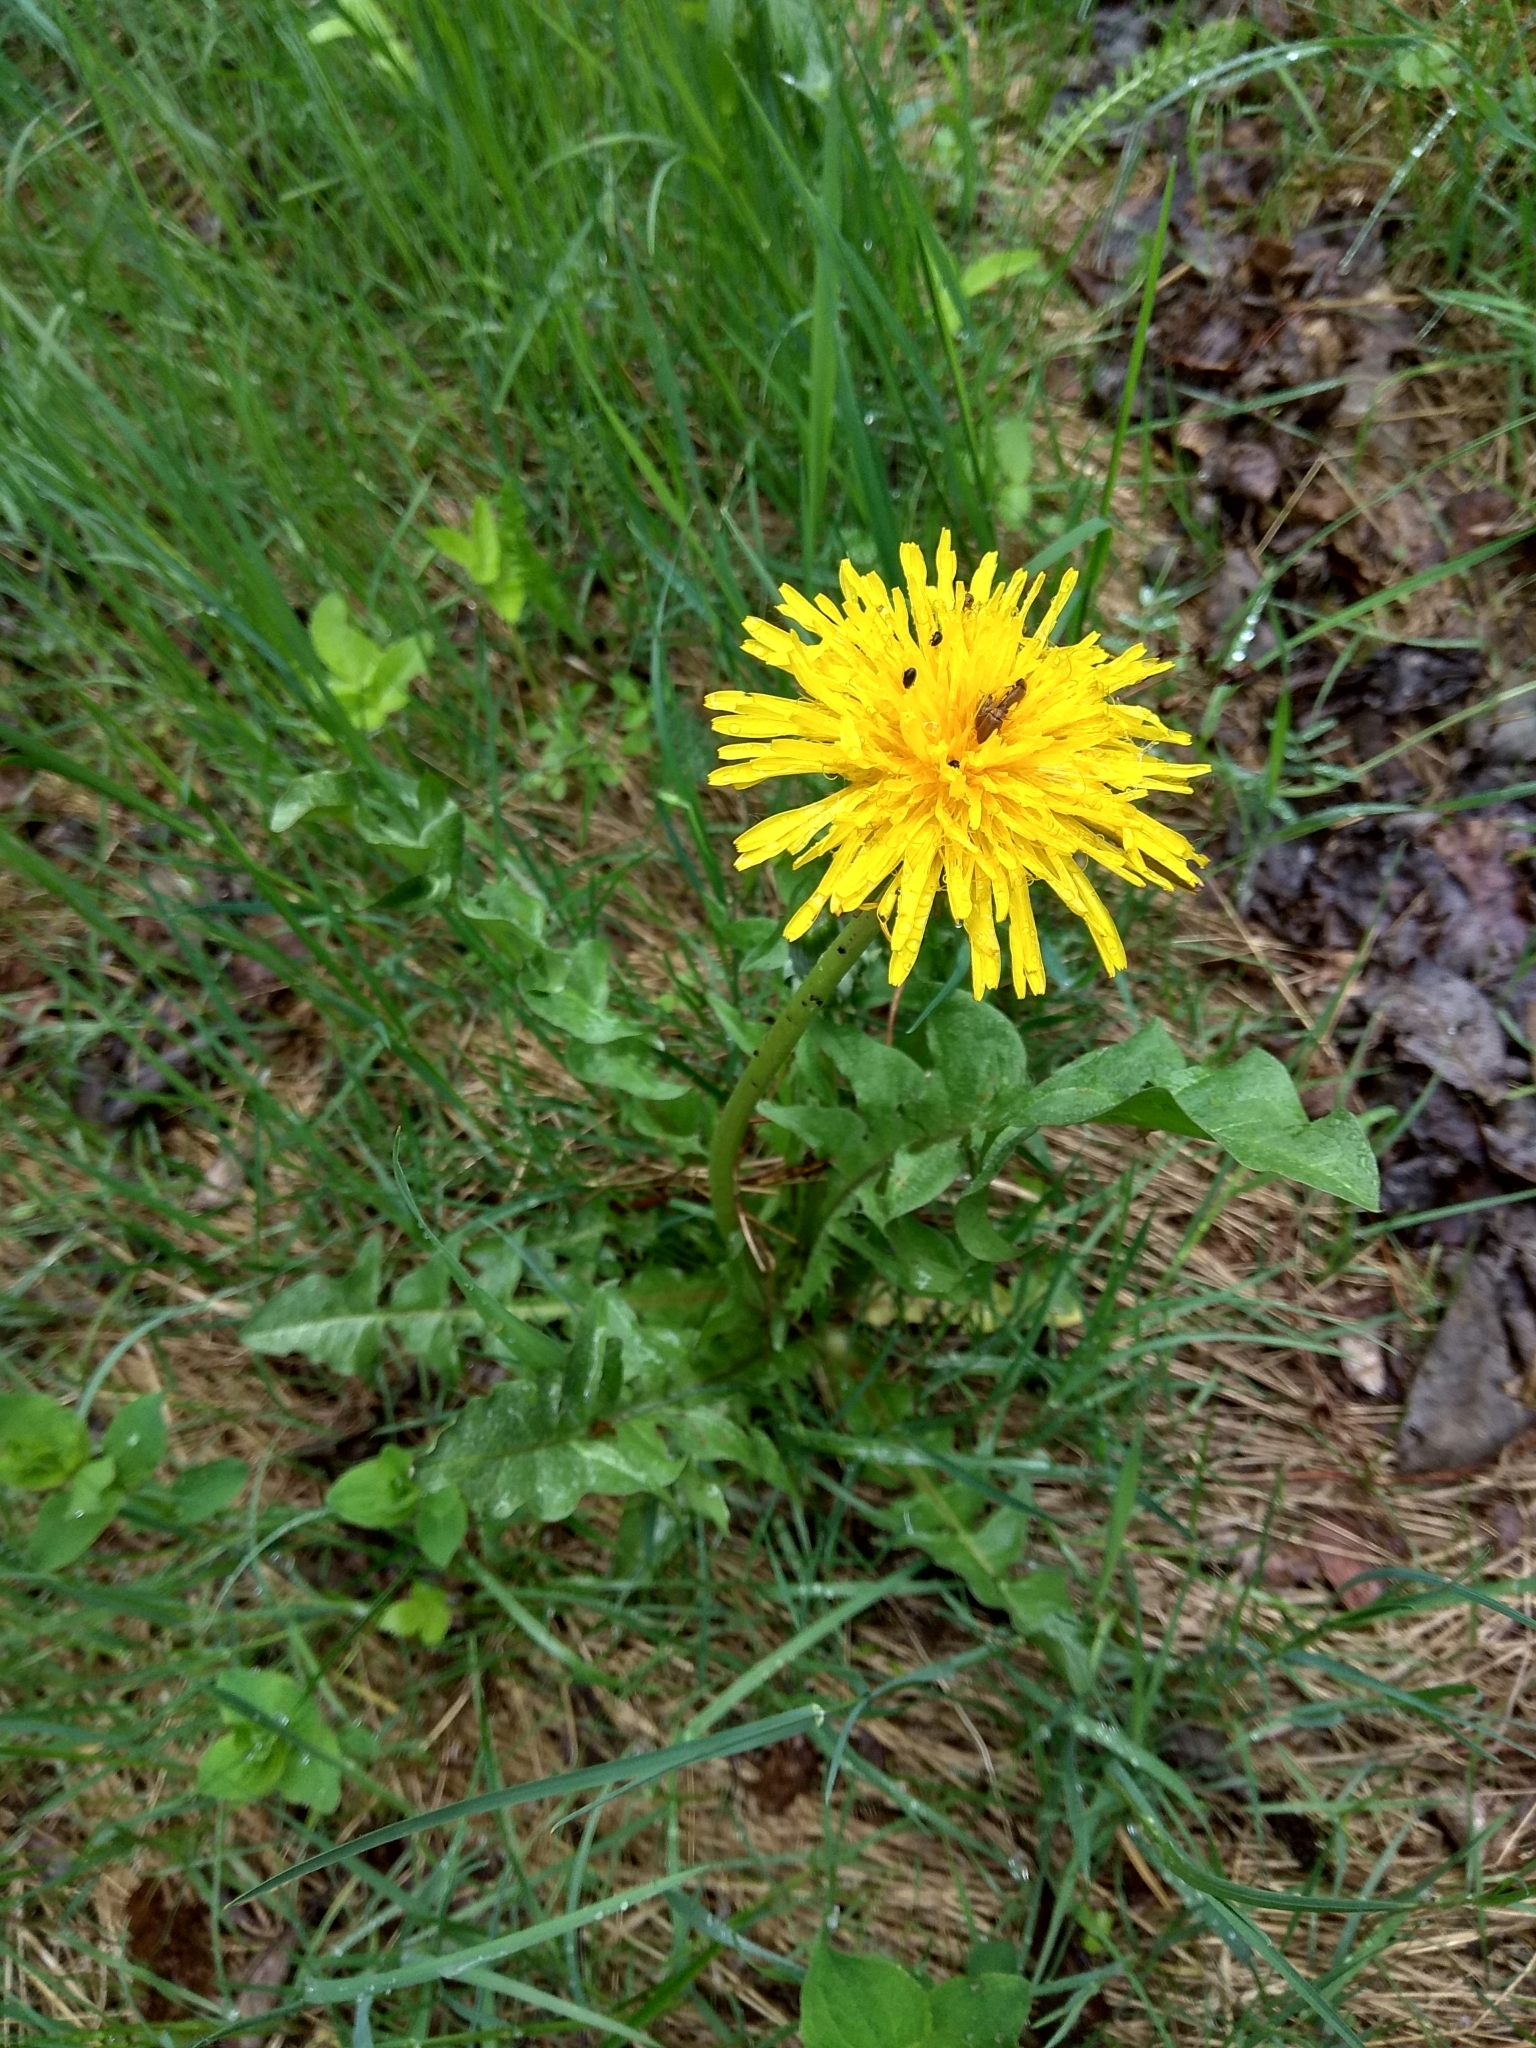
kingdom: Plantae
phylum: Tracheophyta
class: Magnoliopsida
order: Asterales
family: Asteraceae
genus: Taraxacum
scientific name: Taraxacum officinale
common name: Common dandelion
